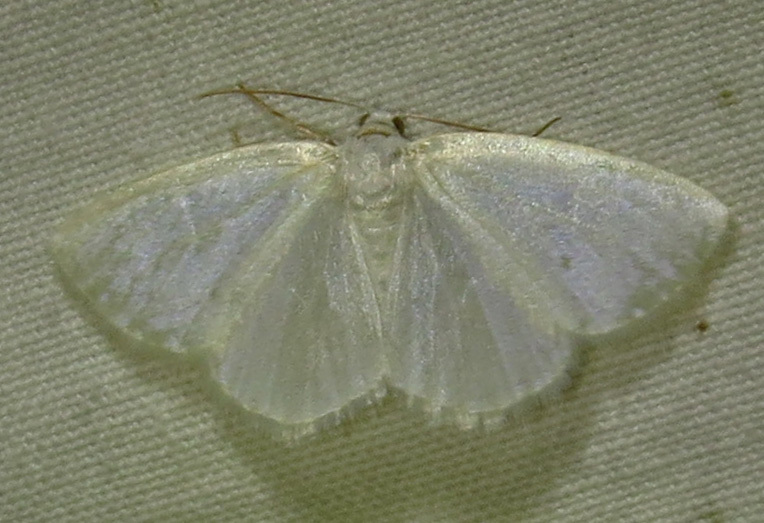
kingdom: Animalia
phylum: Arthropoda
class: Insecta
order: Lepidoptera
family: Geometridae
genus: Lomographa
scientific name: Lomographa vestaliata
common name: White spring moth
